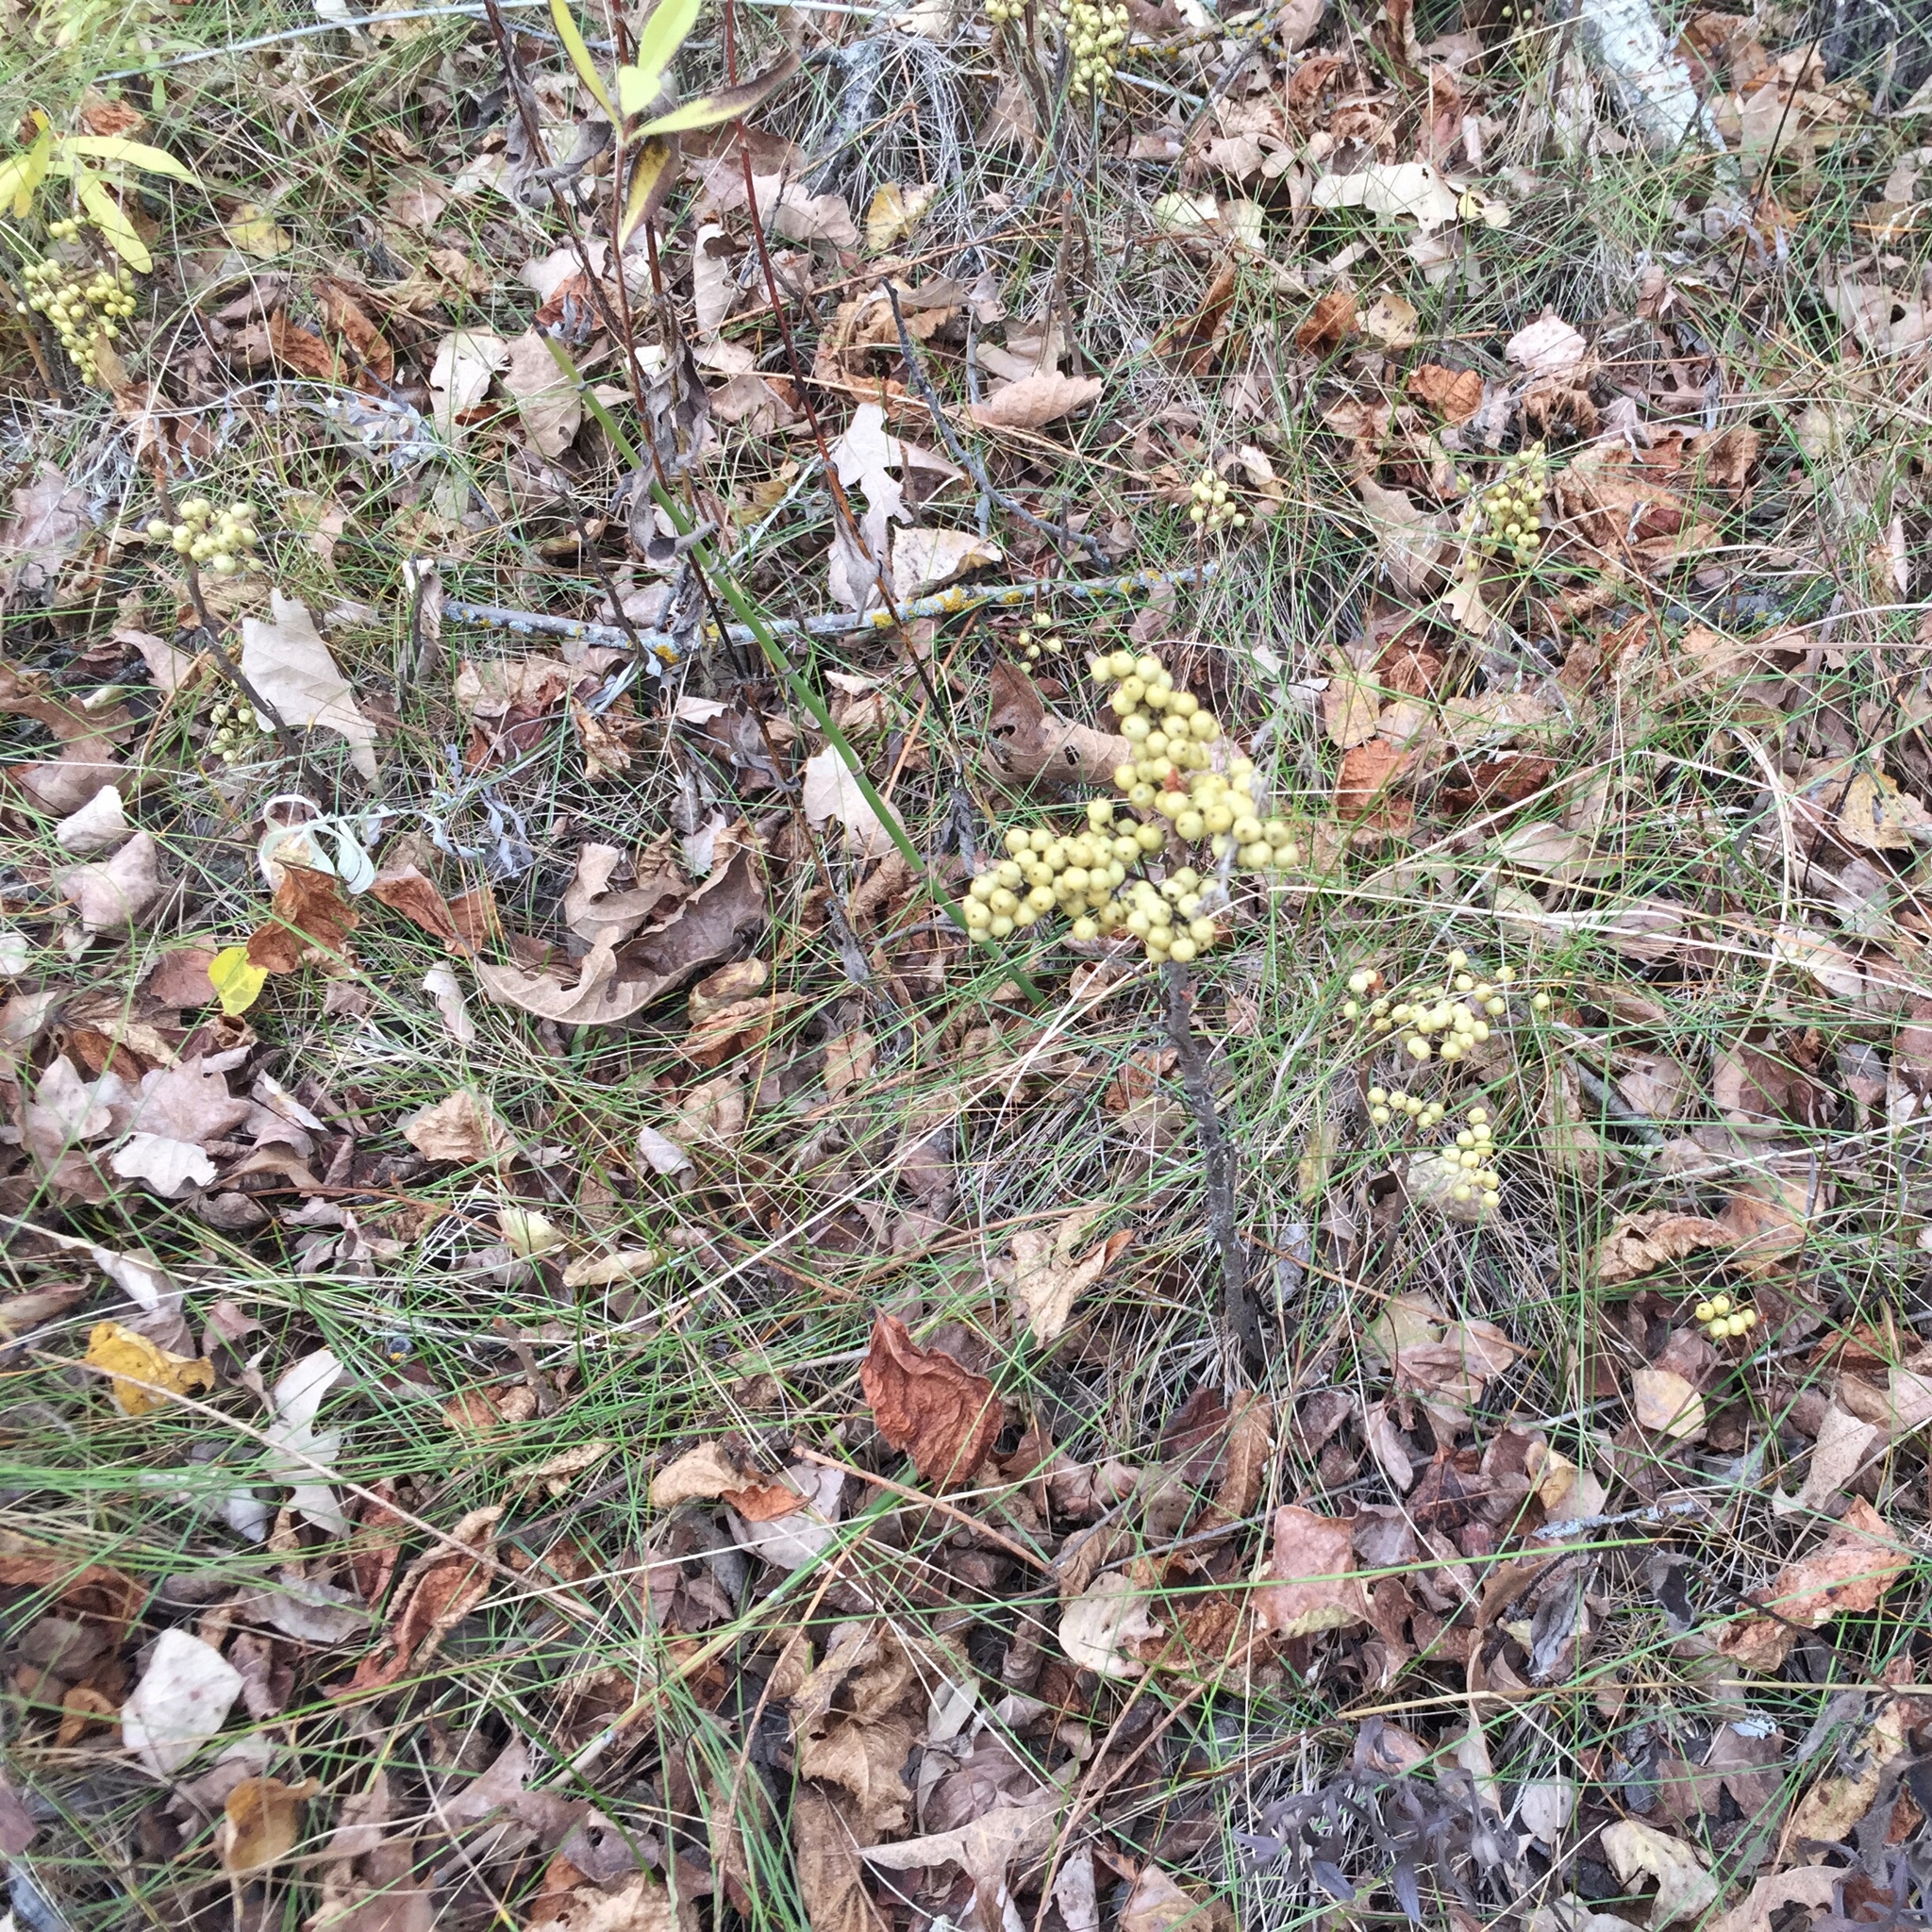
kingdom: Plantae
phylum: Tracheophyta
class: Magnoliopsida
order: Sapindales
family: Anacardiaceae
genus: Toxicodendron
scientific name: Toxicodendron rydbergii
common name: Rydberg's poison-ivy
